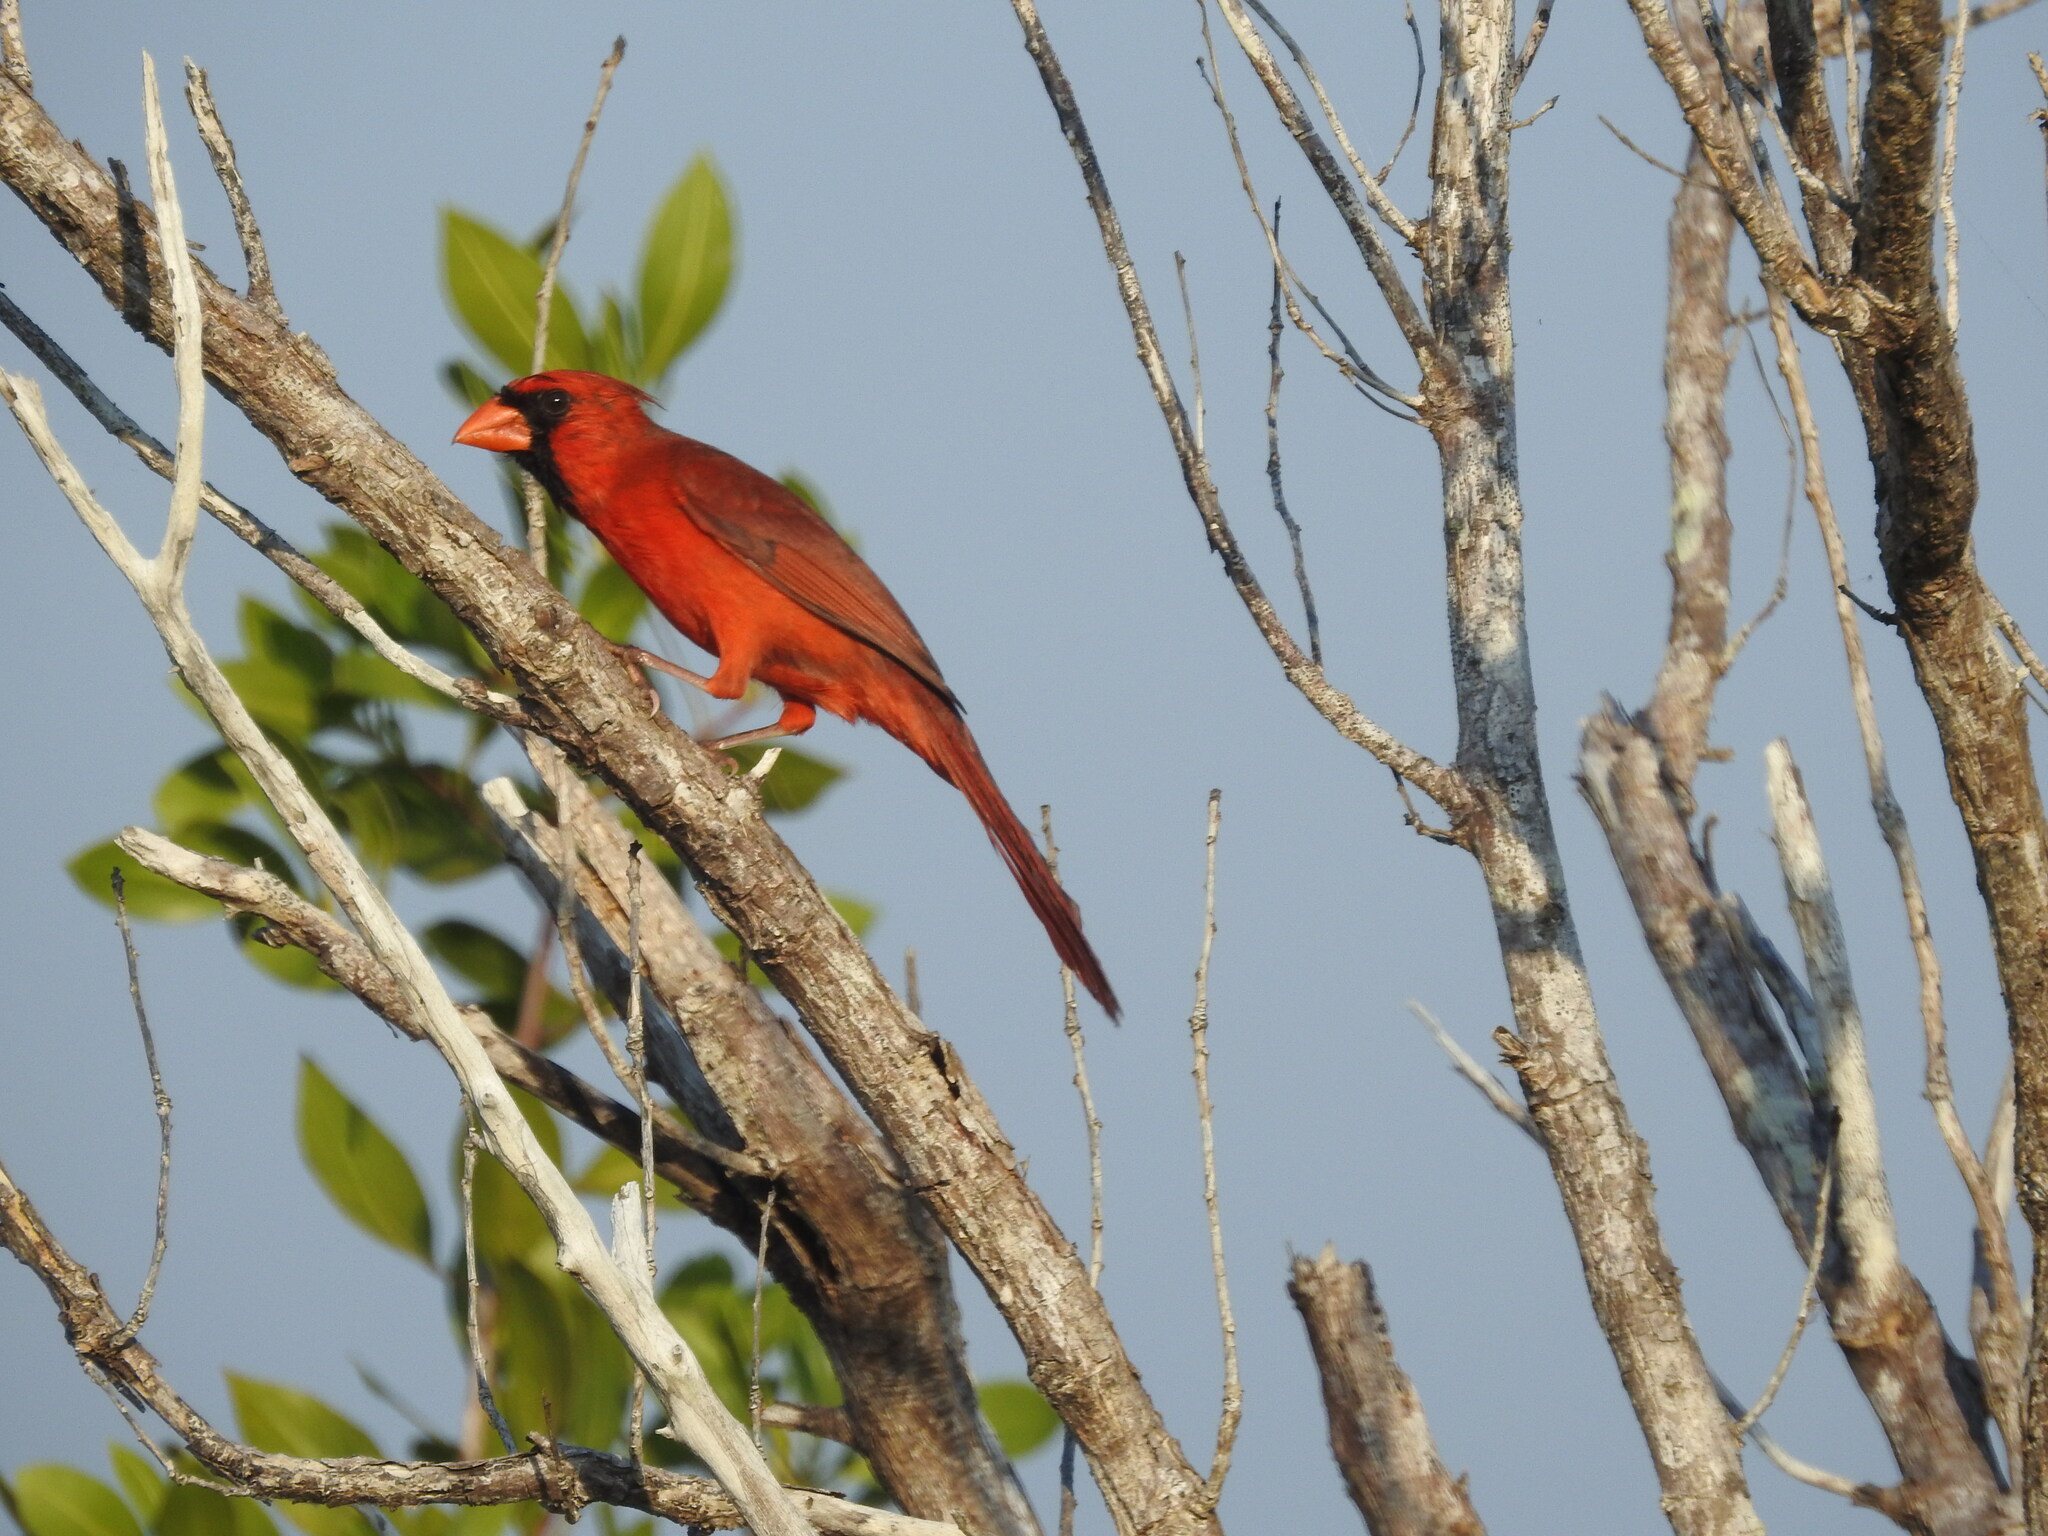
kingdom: Animalia
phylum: Chordata
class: Aves
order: Passeriformes
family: Cardinalidae
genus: Cardinalis
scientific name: Cardinalis cardinalis
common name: Northern cardinal
